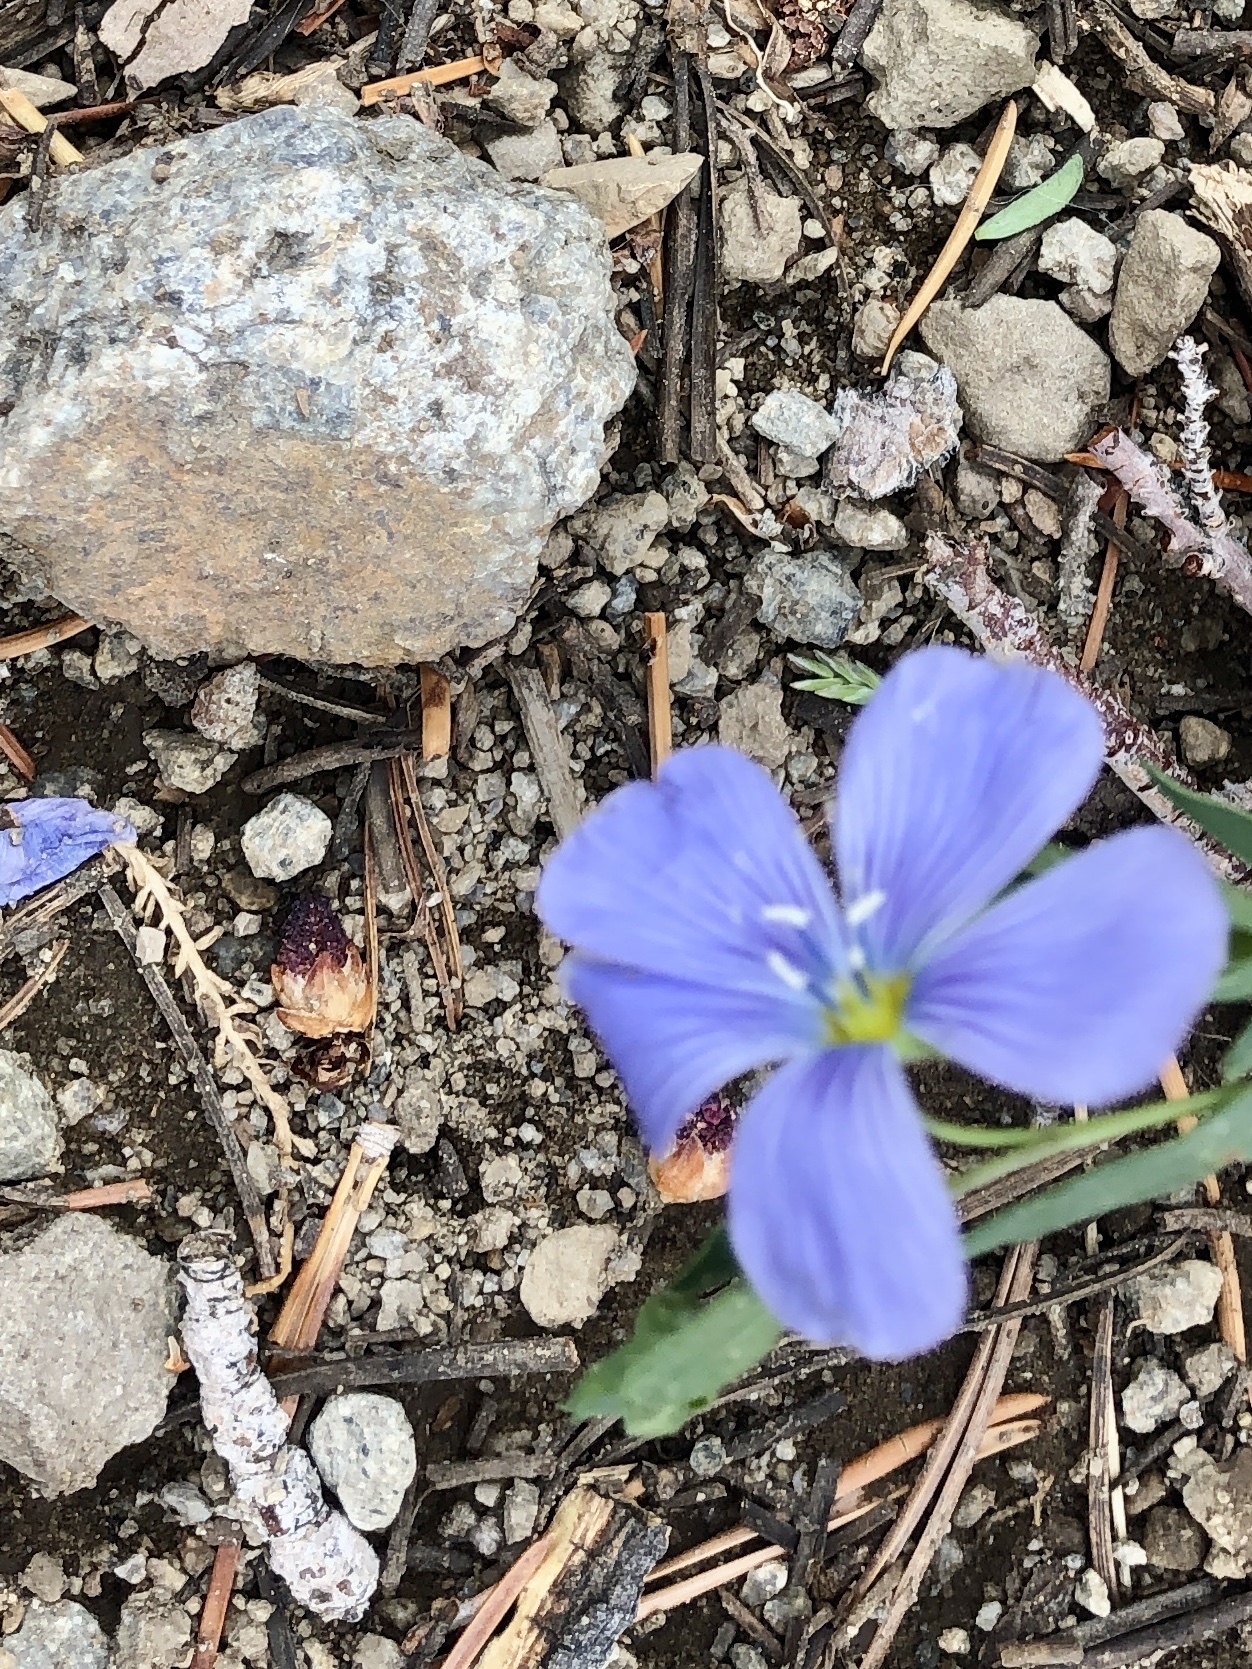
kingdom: Plantae
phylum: Tracheophyta
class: Magnoliopsida
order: Malpighiales
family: Linaceae
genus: Linum
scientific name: Linum lewisii
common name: Prairie flax
